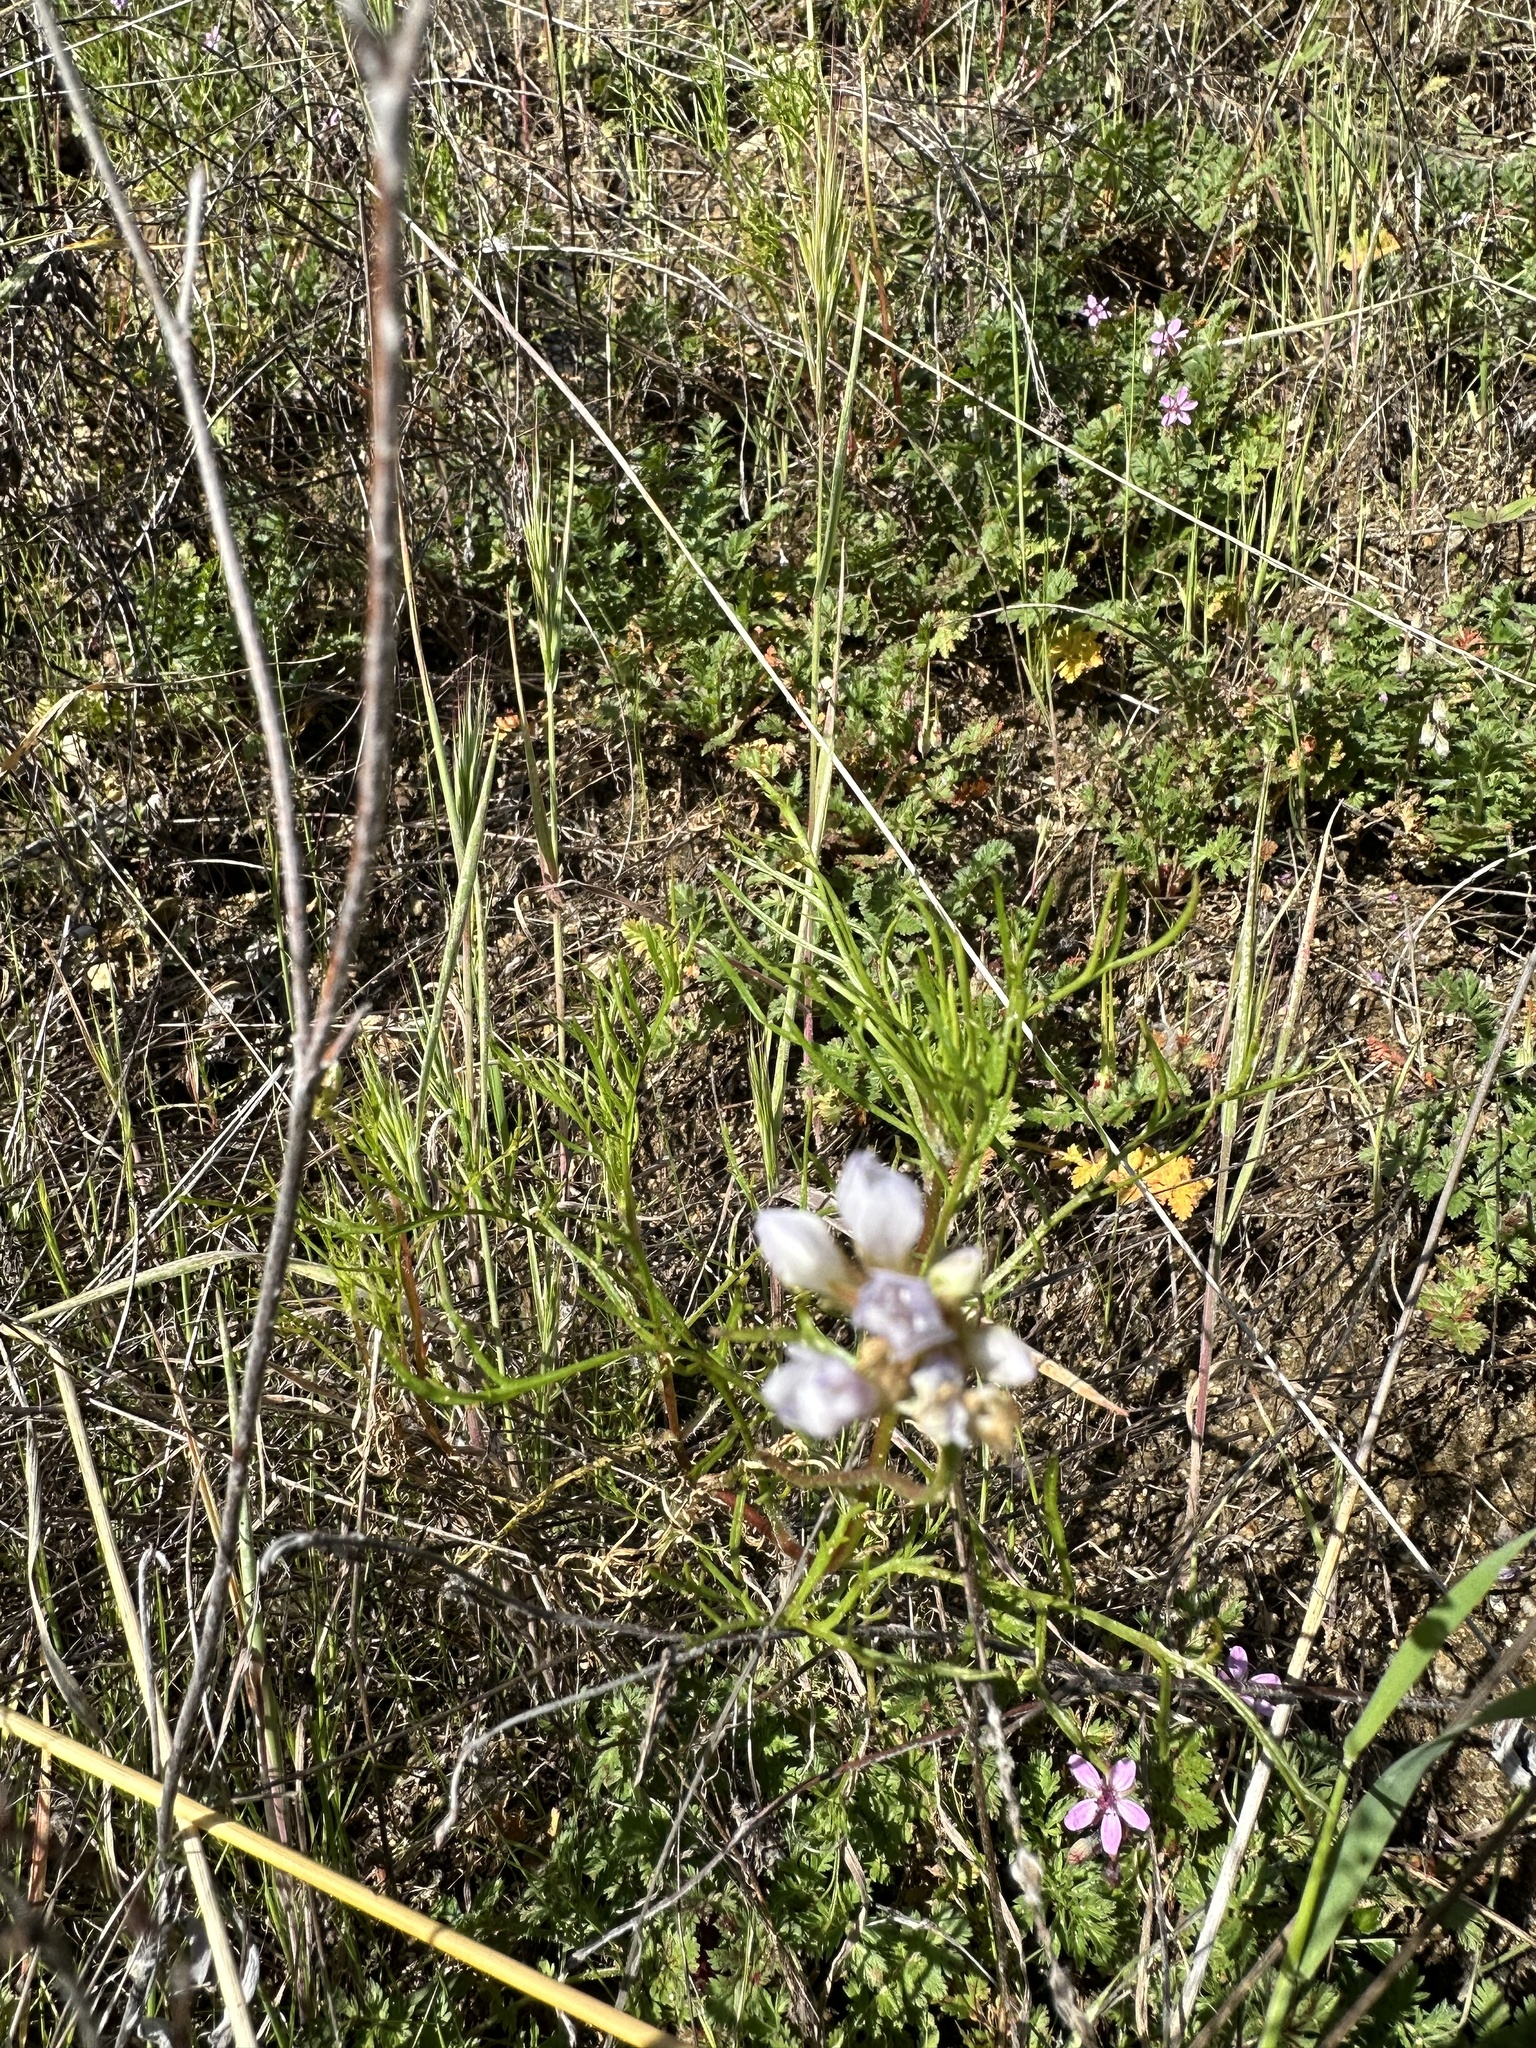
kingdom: Plantae
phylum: Tracheophyta
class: Magnoliopsida
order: Ericales
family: Polemoniaceae
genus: Gilia
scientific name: Gilia angelensis
